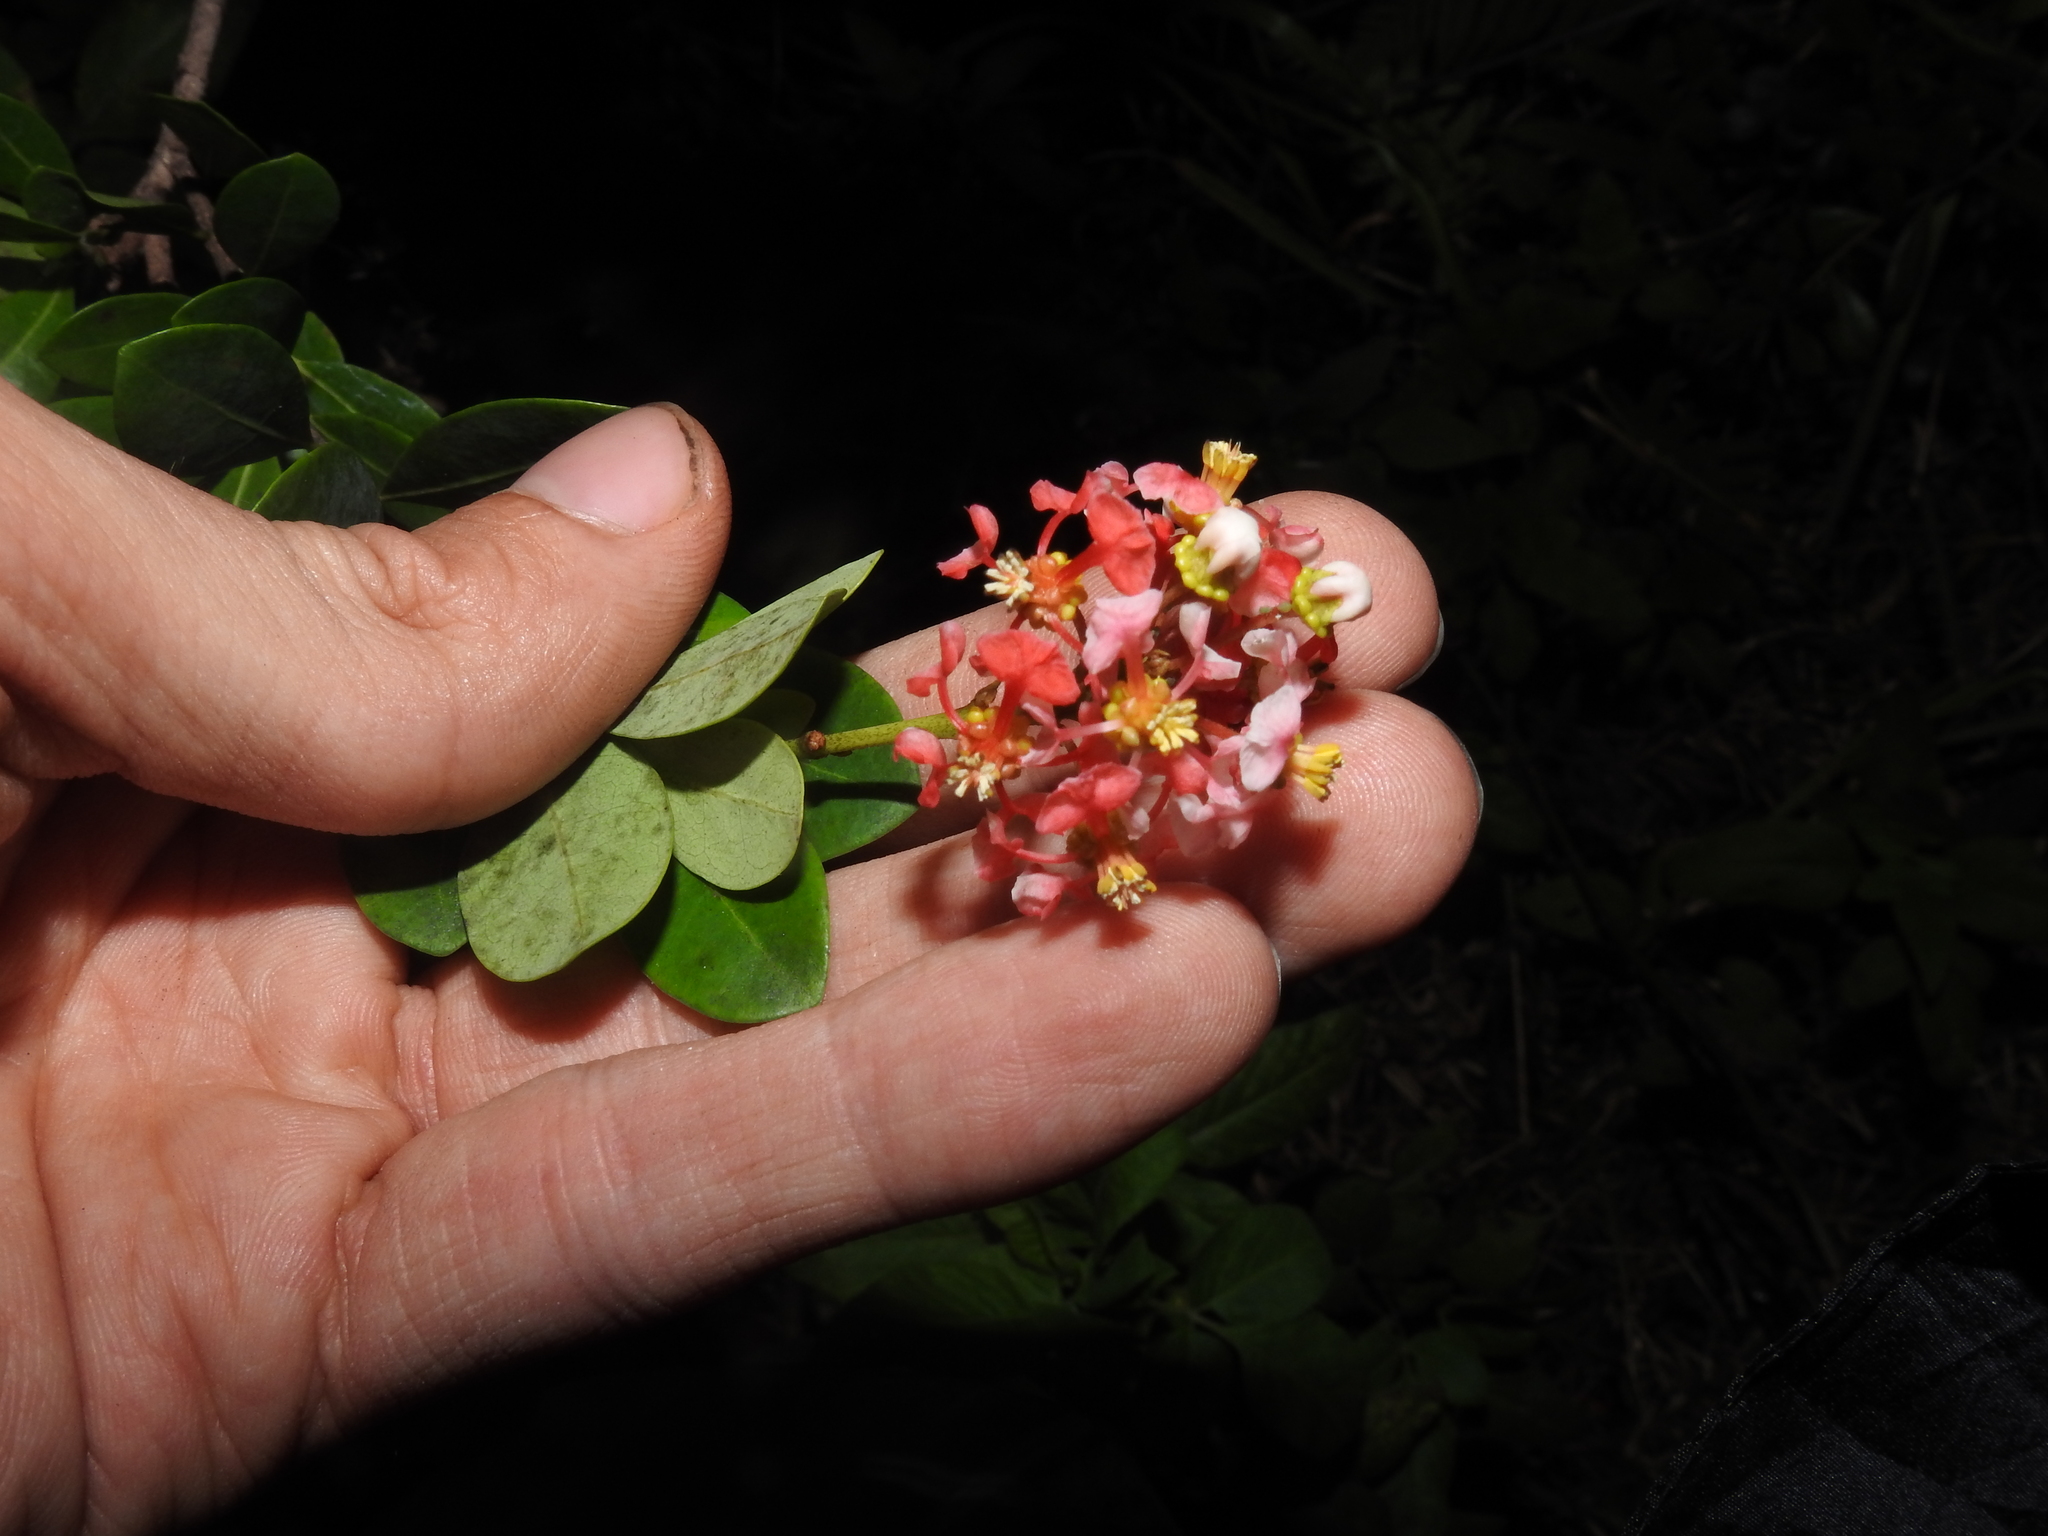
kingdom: Plantae
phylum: Tracheophyta
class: Magnoliopsida
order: Malpighiales
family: Malpighiaceae
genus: Byrsonima
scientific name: Byrsonima lucida
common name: Clam-cherry
